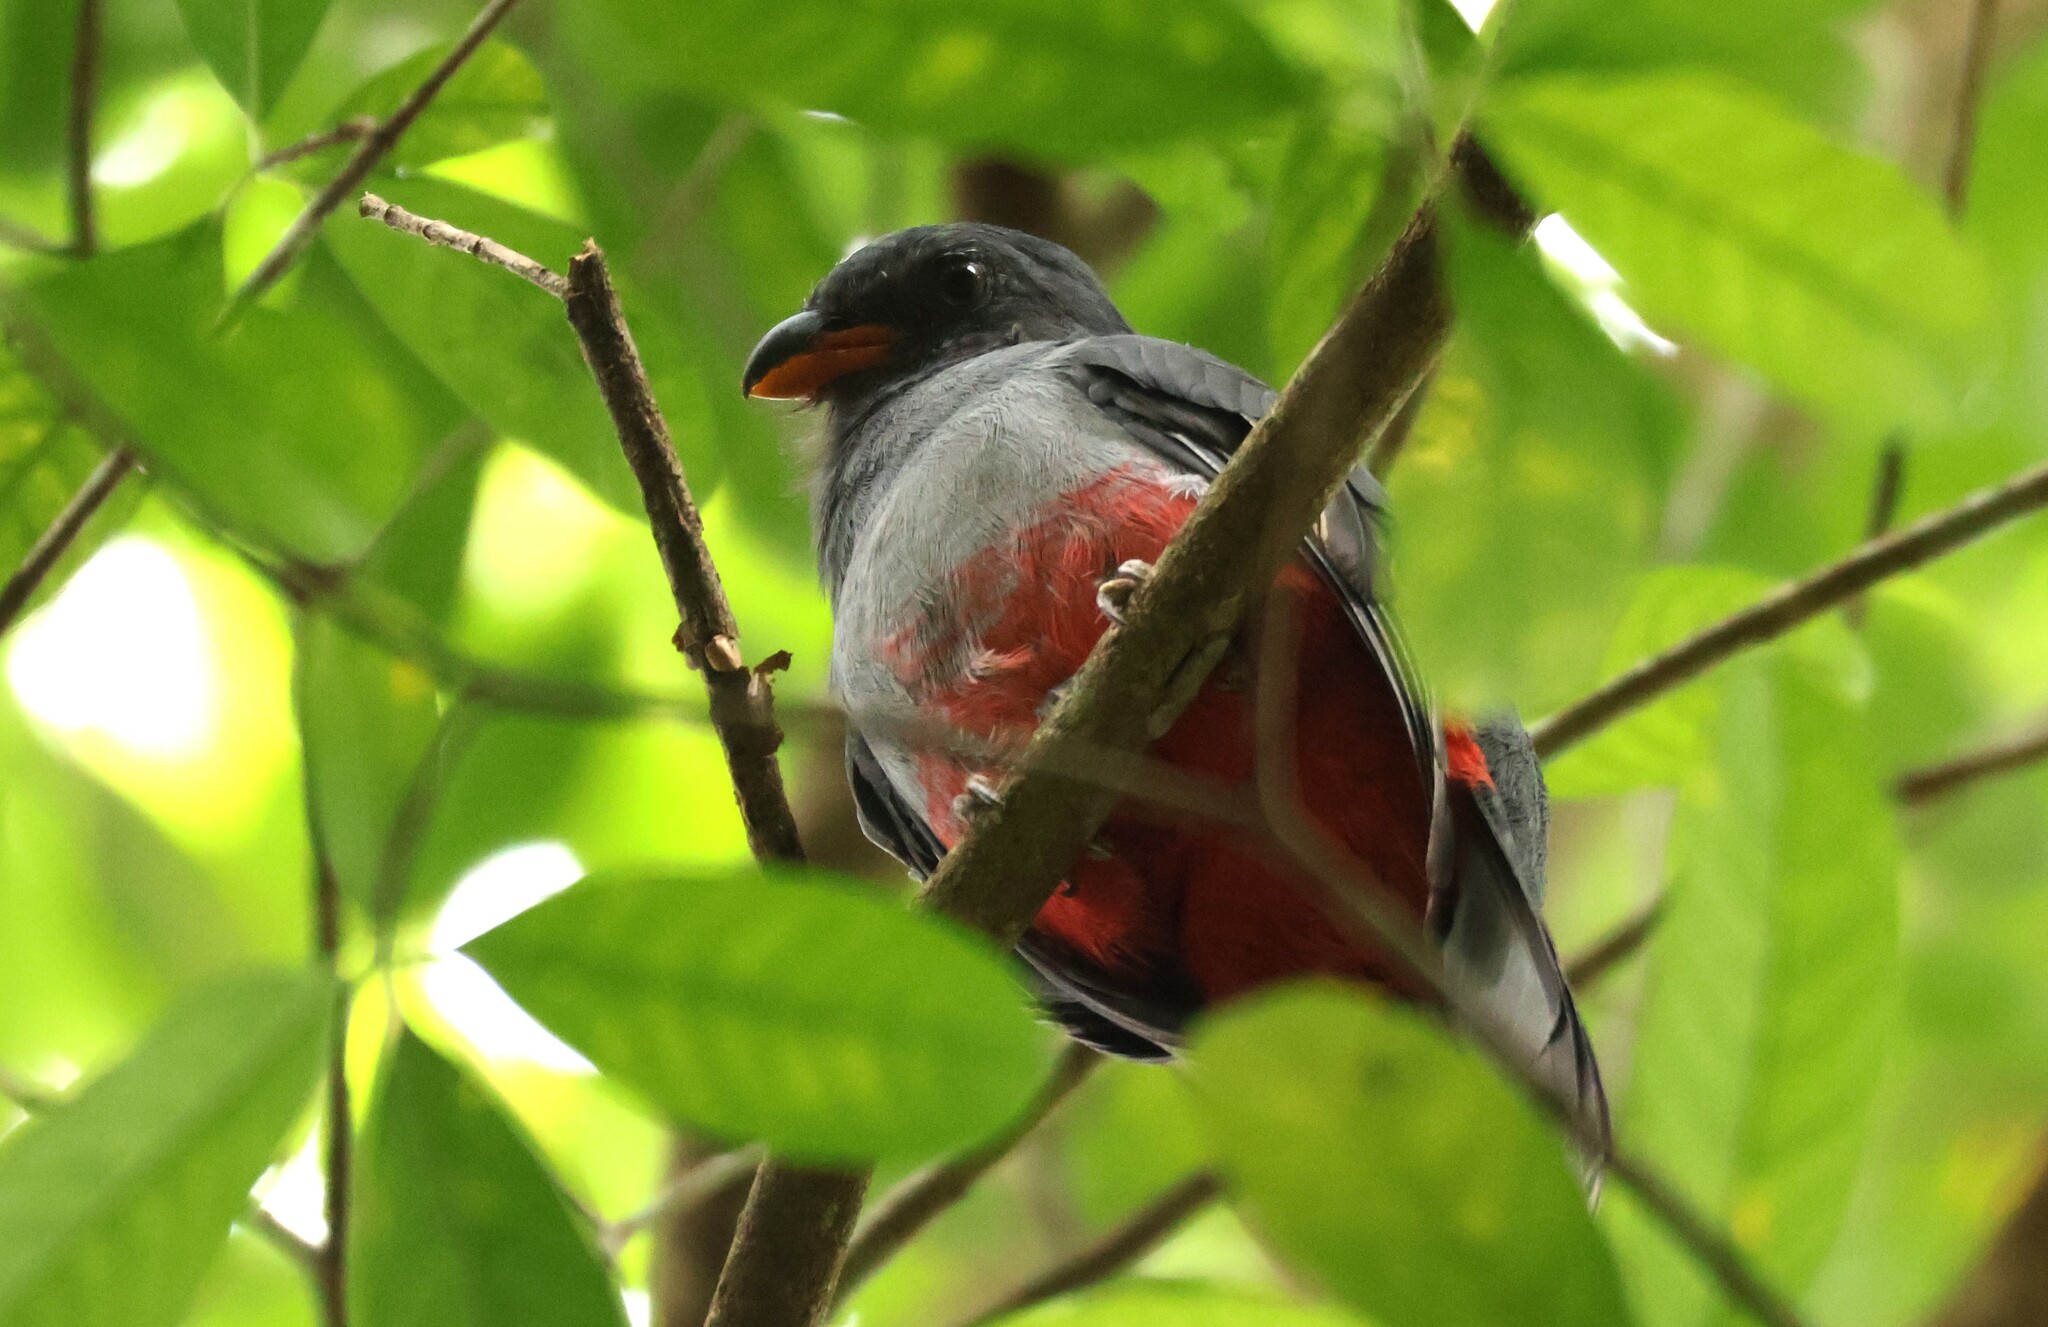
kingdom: Animalia
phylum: Chordata
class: Aves
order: Trogoniformes
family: Trogonidae
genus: Trogon
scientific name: Trogon massena
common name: Slaty-tailed trogon
